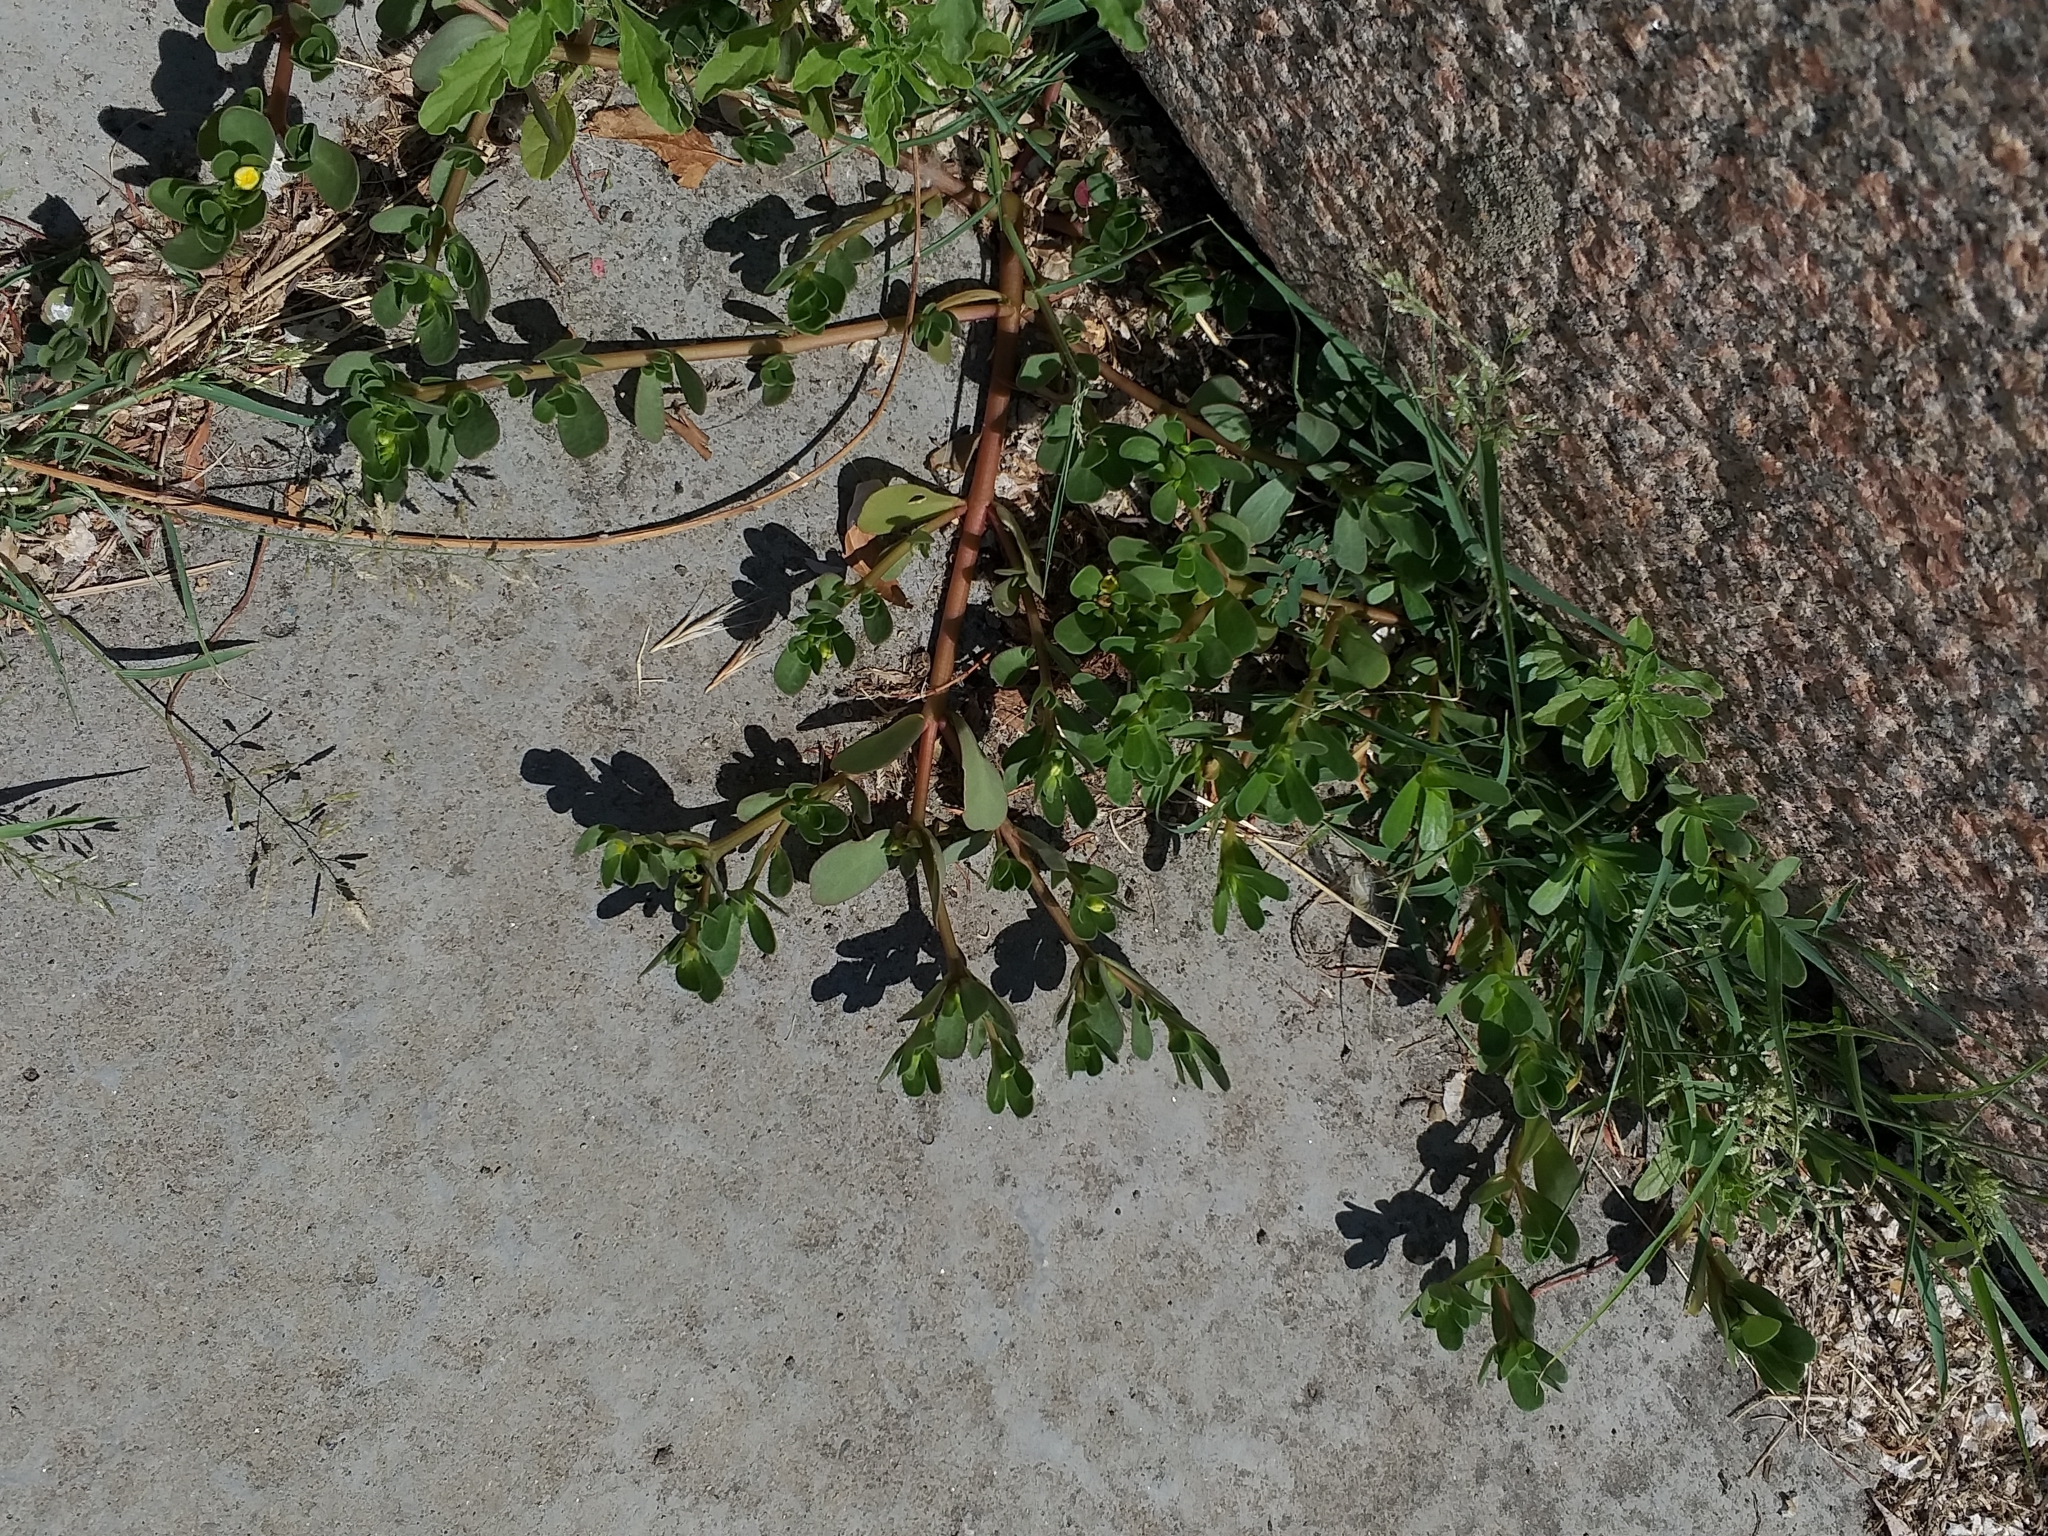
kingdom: Plantae
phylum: Tracheophyta
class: Magnoliopsida
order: Caryophyllales
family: Portulacaceae
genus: Portulaca
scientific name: Portulaca oleracea
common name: Common purslane
